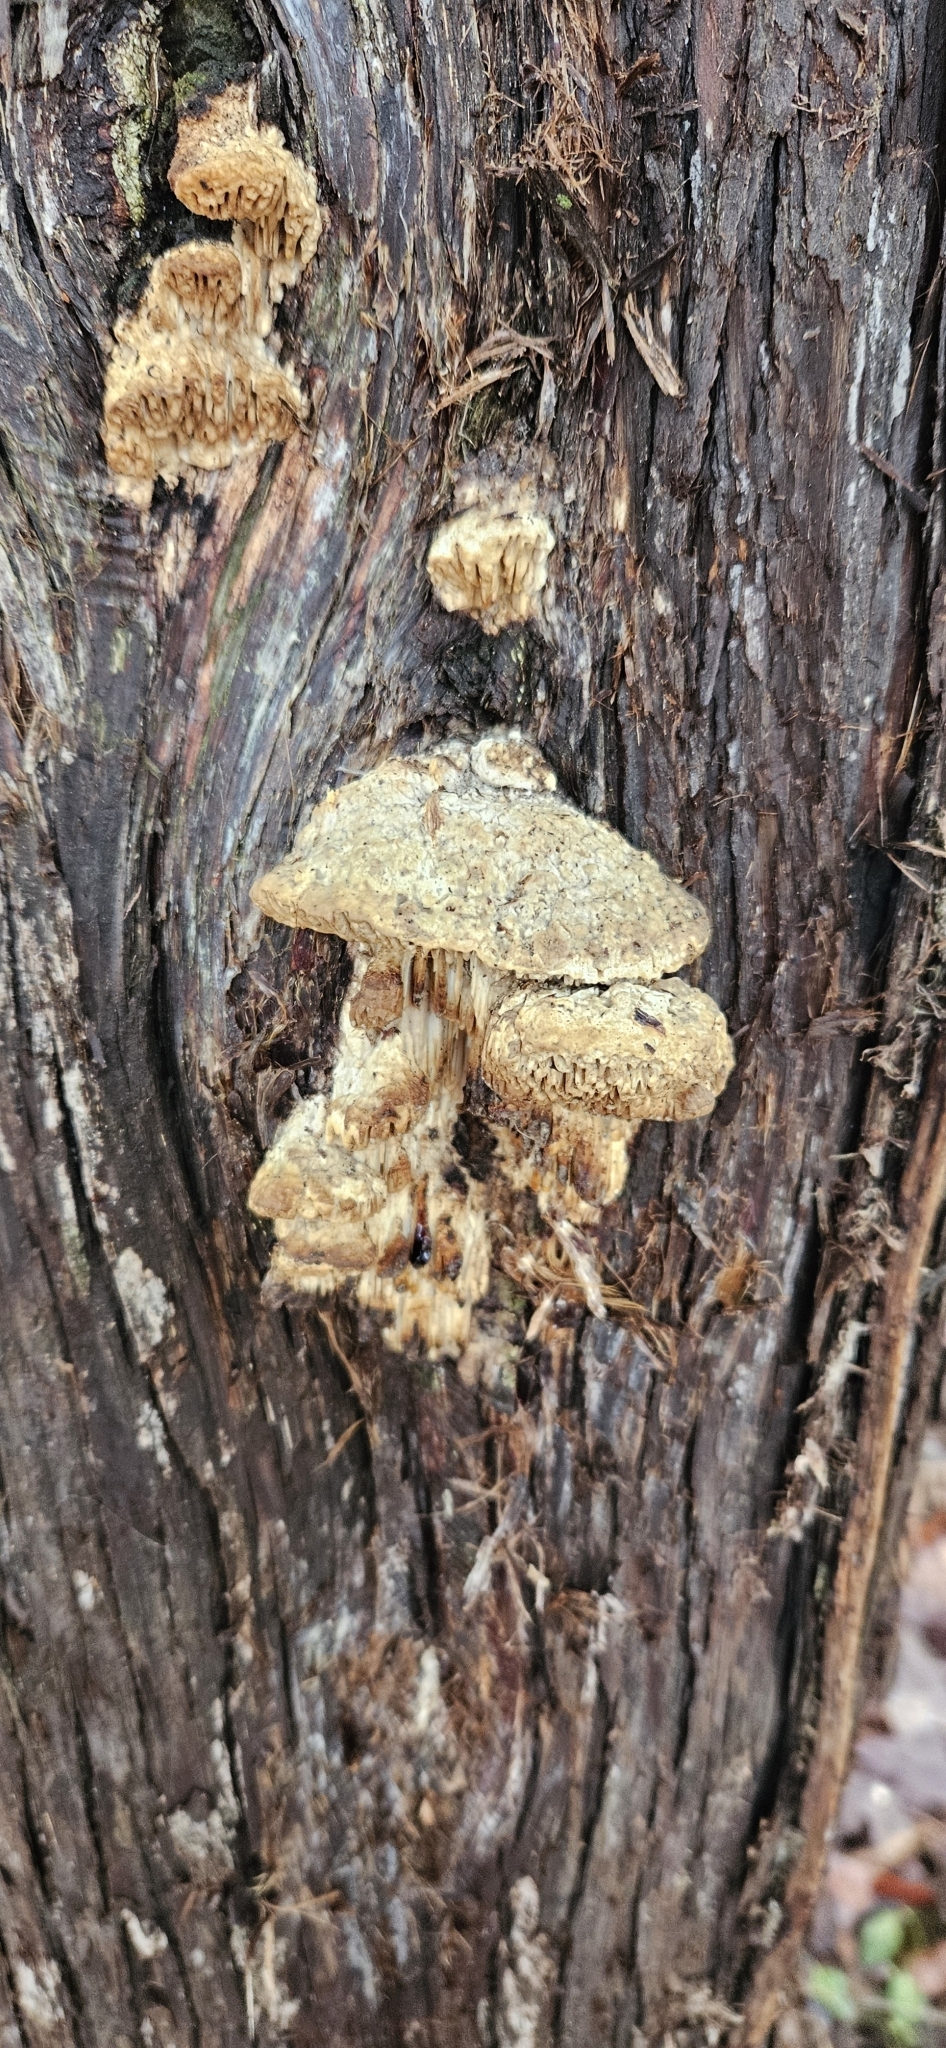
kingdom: Fungi
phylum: Basidiomycota
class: Agaricomycetes
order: Polyporales
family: Fomitopsidaceae
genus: Fomitopsis
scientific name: Fomitopsis
